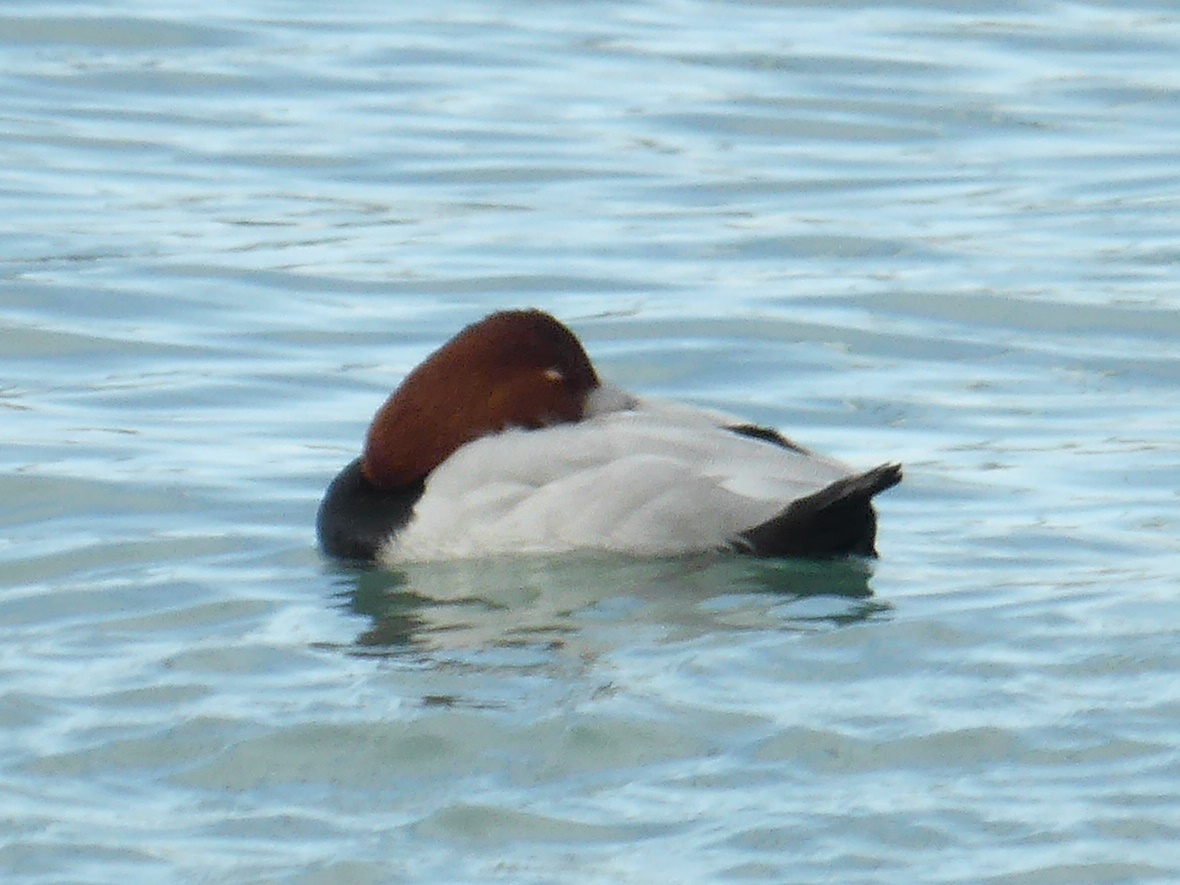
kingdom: Animalia
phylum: Chordata
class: Aves
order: Anseriformes
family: Anatidae
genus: Aythya
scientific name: Aythya ferina
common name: Common pochard
